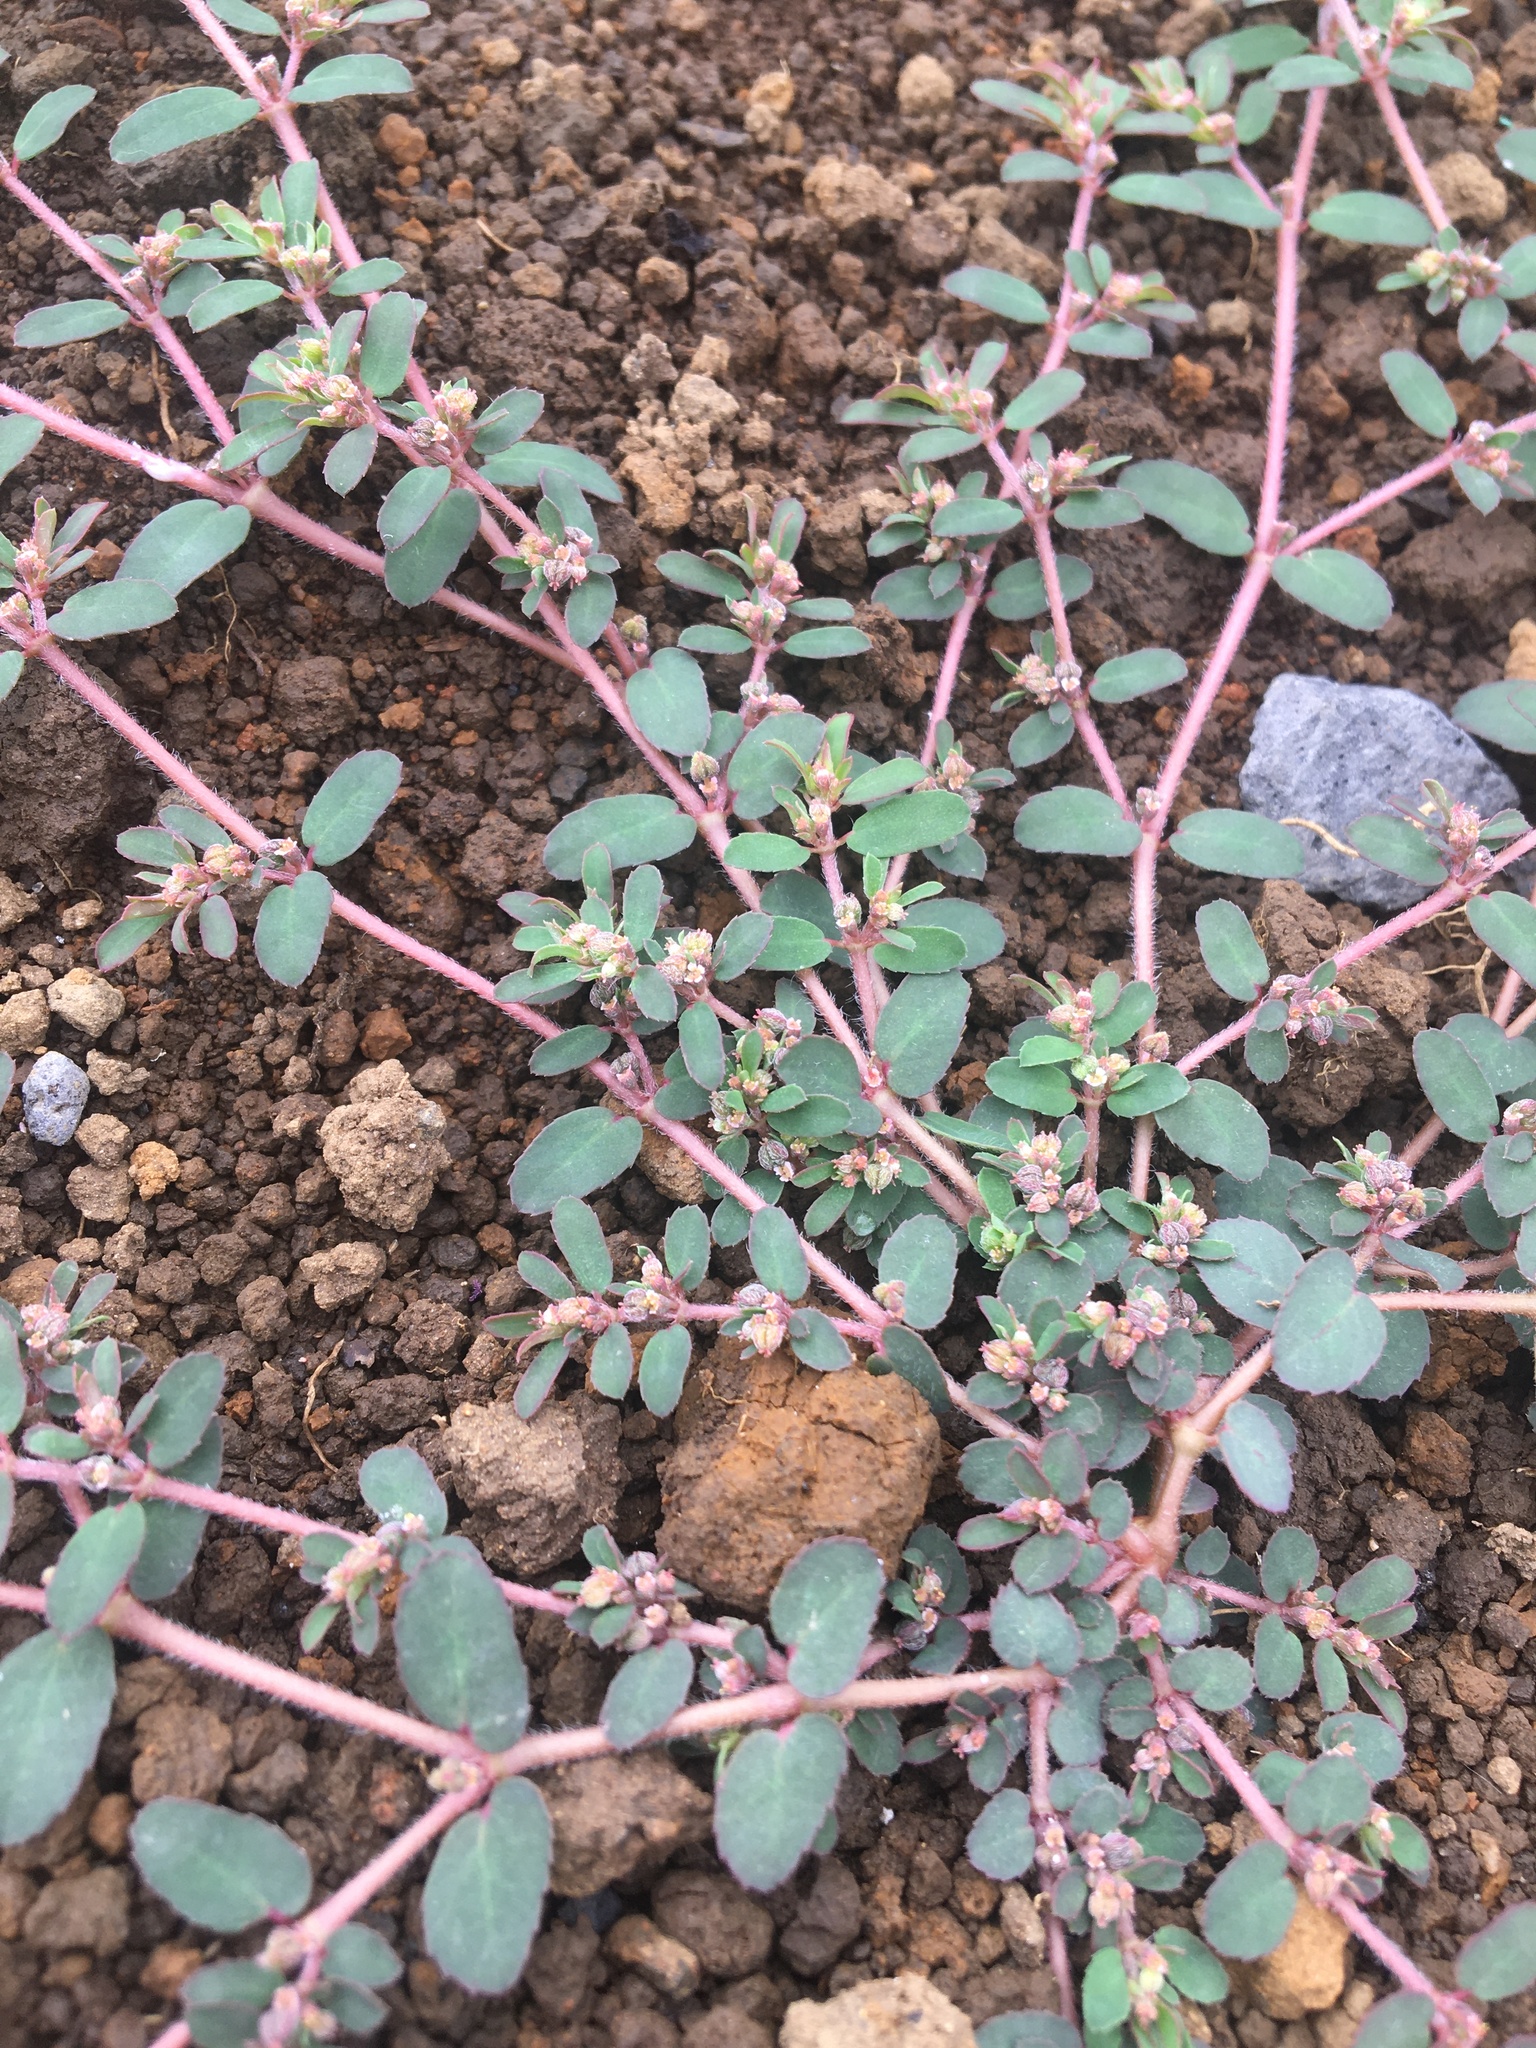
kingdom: Plantae
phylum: Tracheophyta
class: Magnoliopsida
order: Malpighiales
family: Euphorbiaceae
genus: Euphorbia
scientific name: Euphorbia maculata
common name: Spotted spurge
